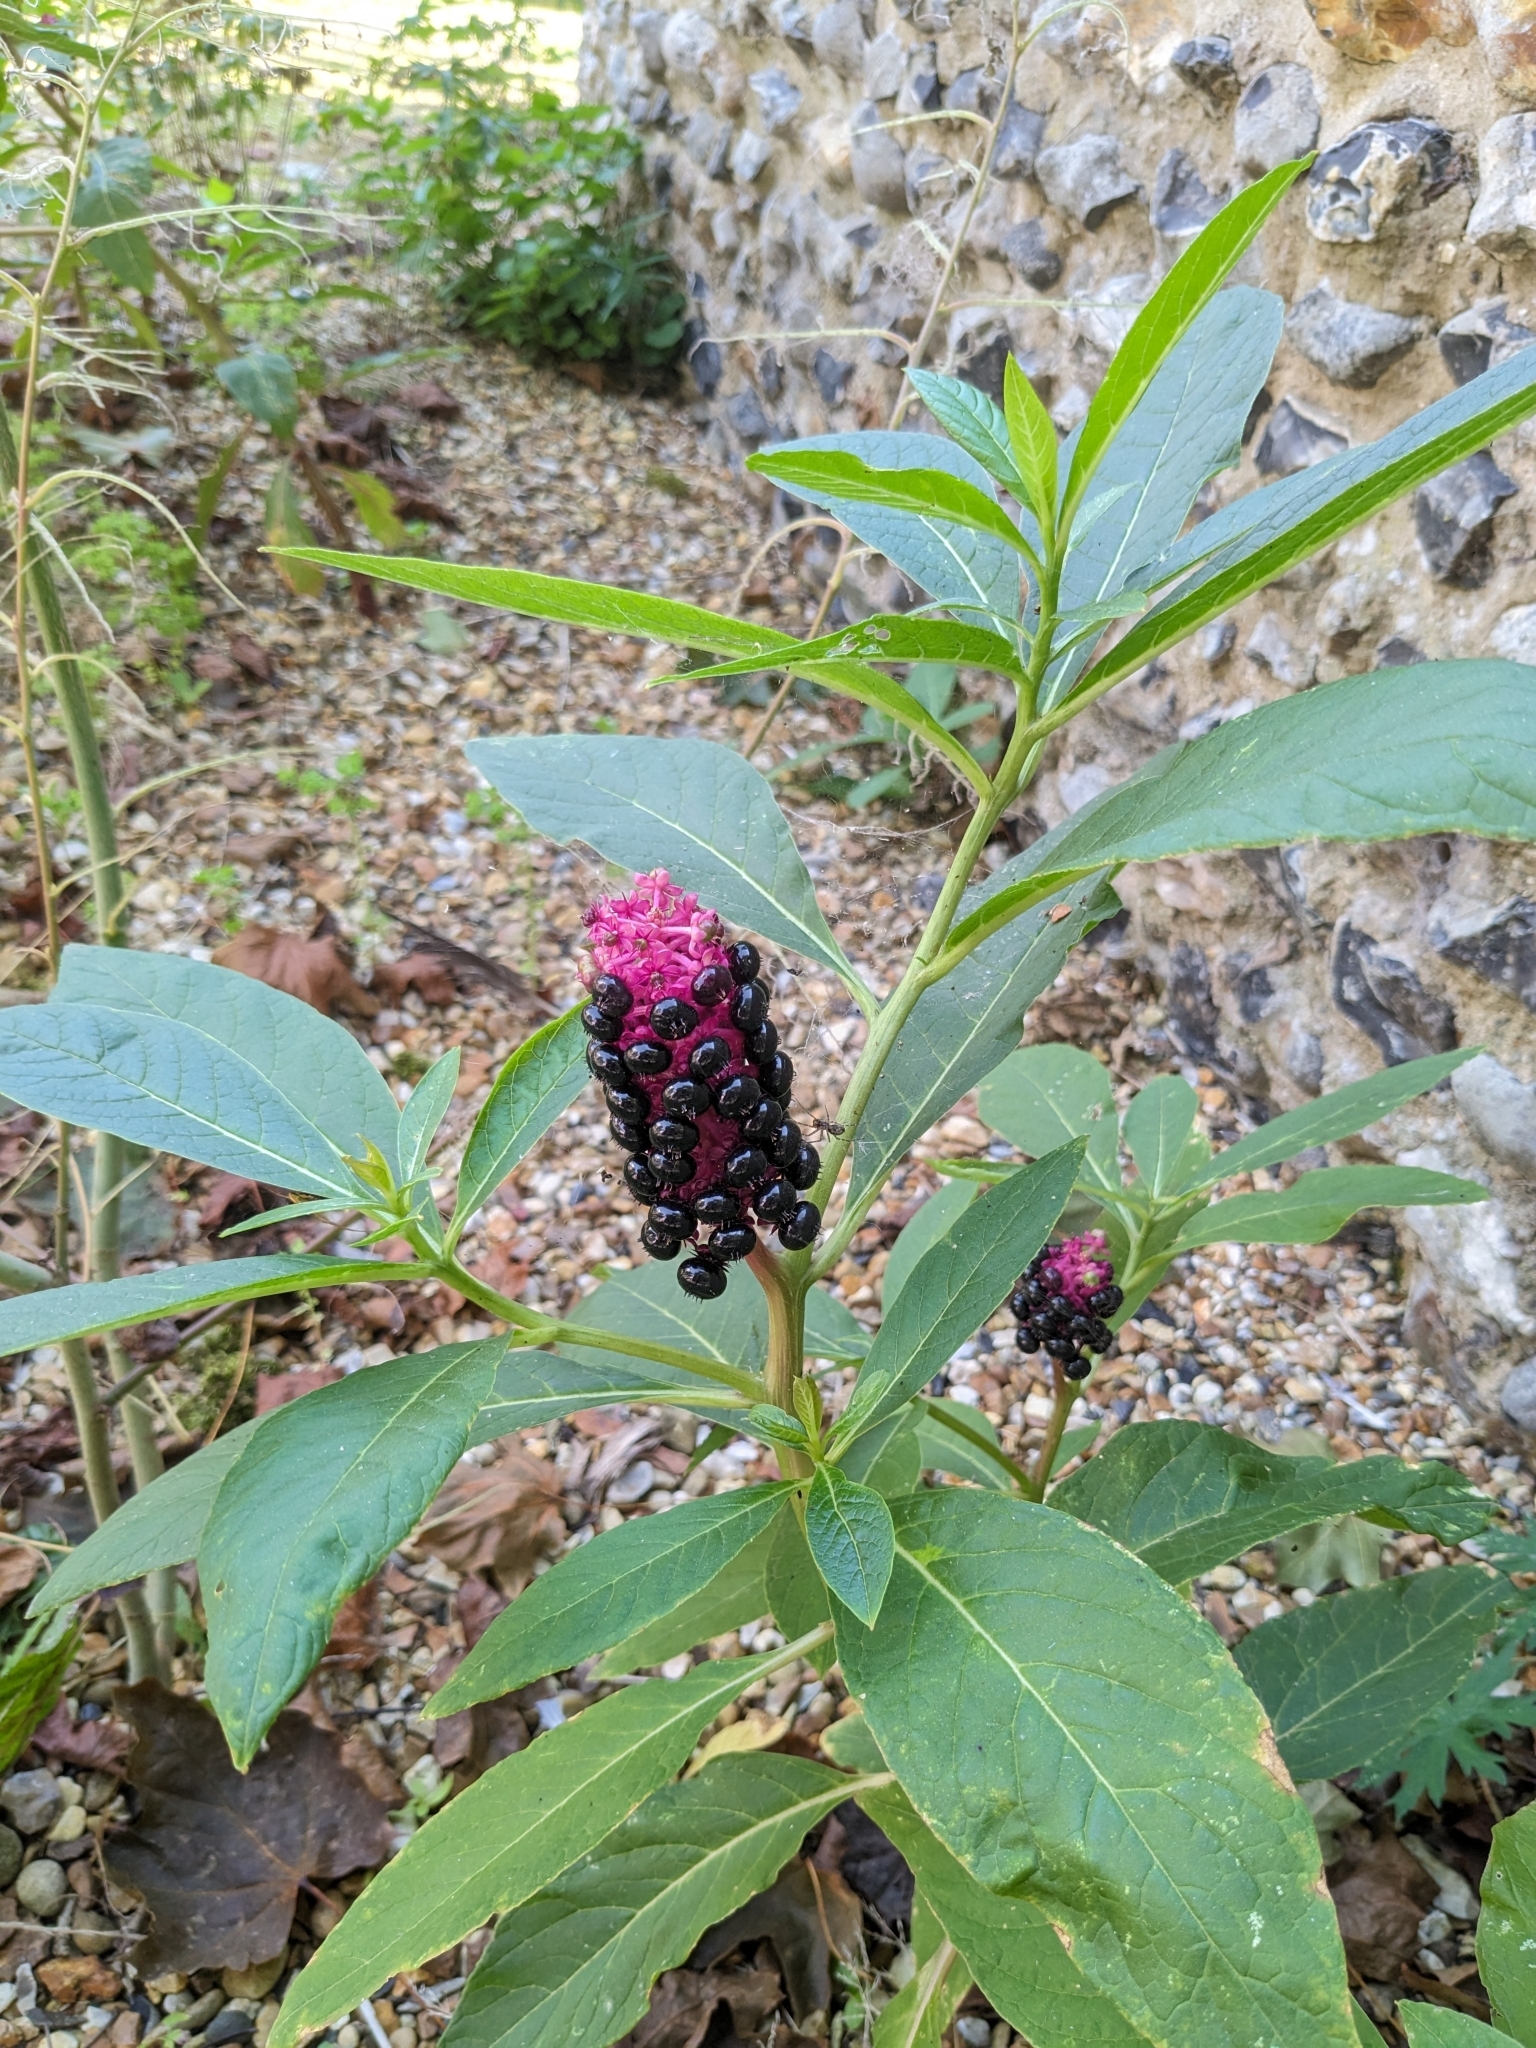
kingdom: Plantae
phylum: Tracheophyta
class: Magnoliopsida
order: Caryophyllales
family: Phytolaccaceae
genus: Phytolacca
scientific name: Phytolacca polyandra
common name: Chinese pokeweed
